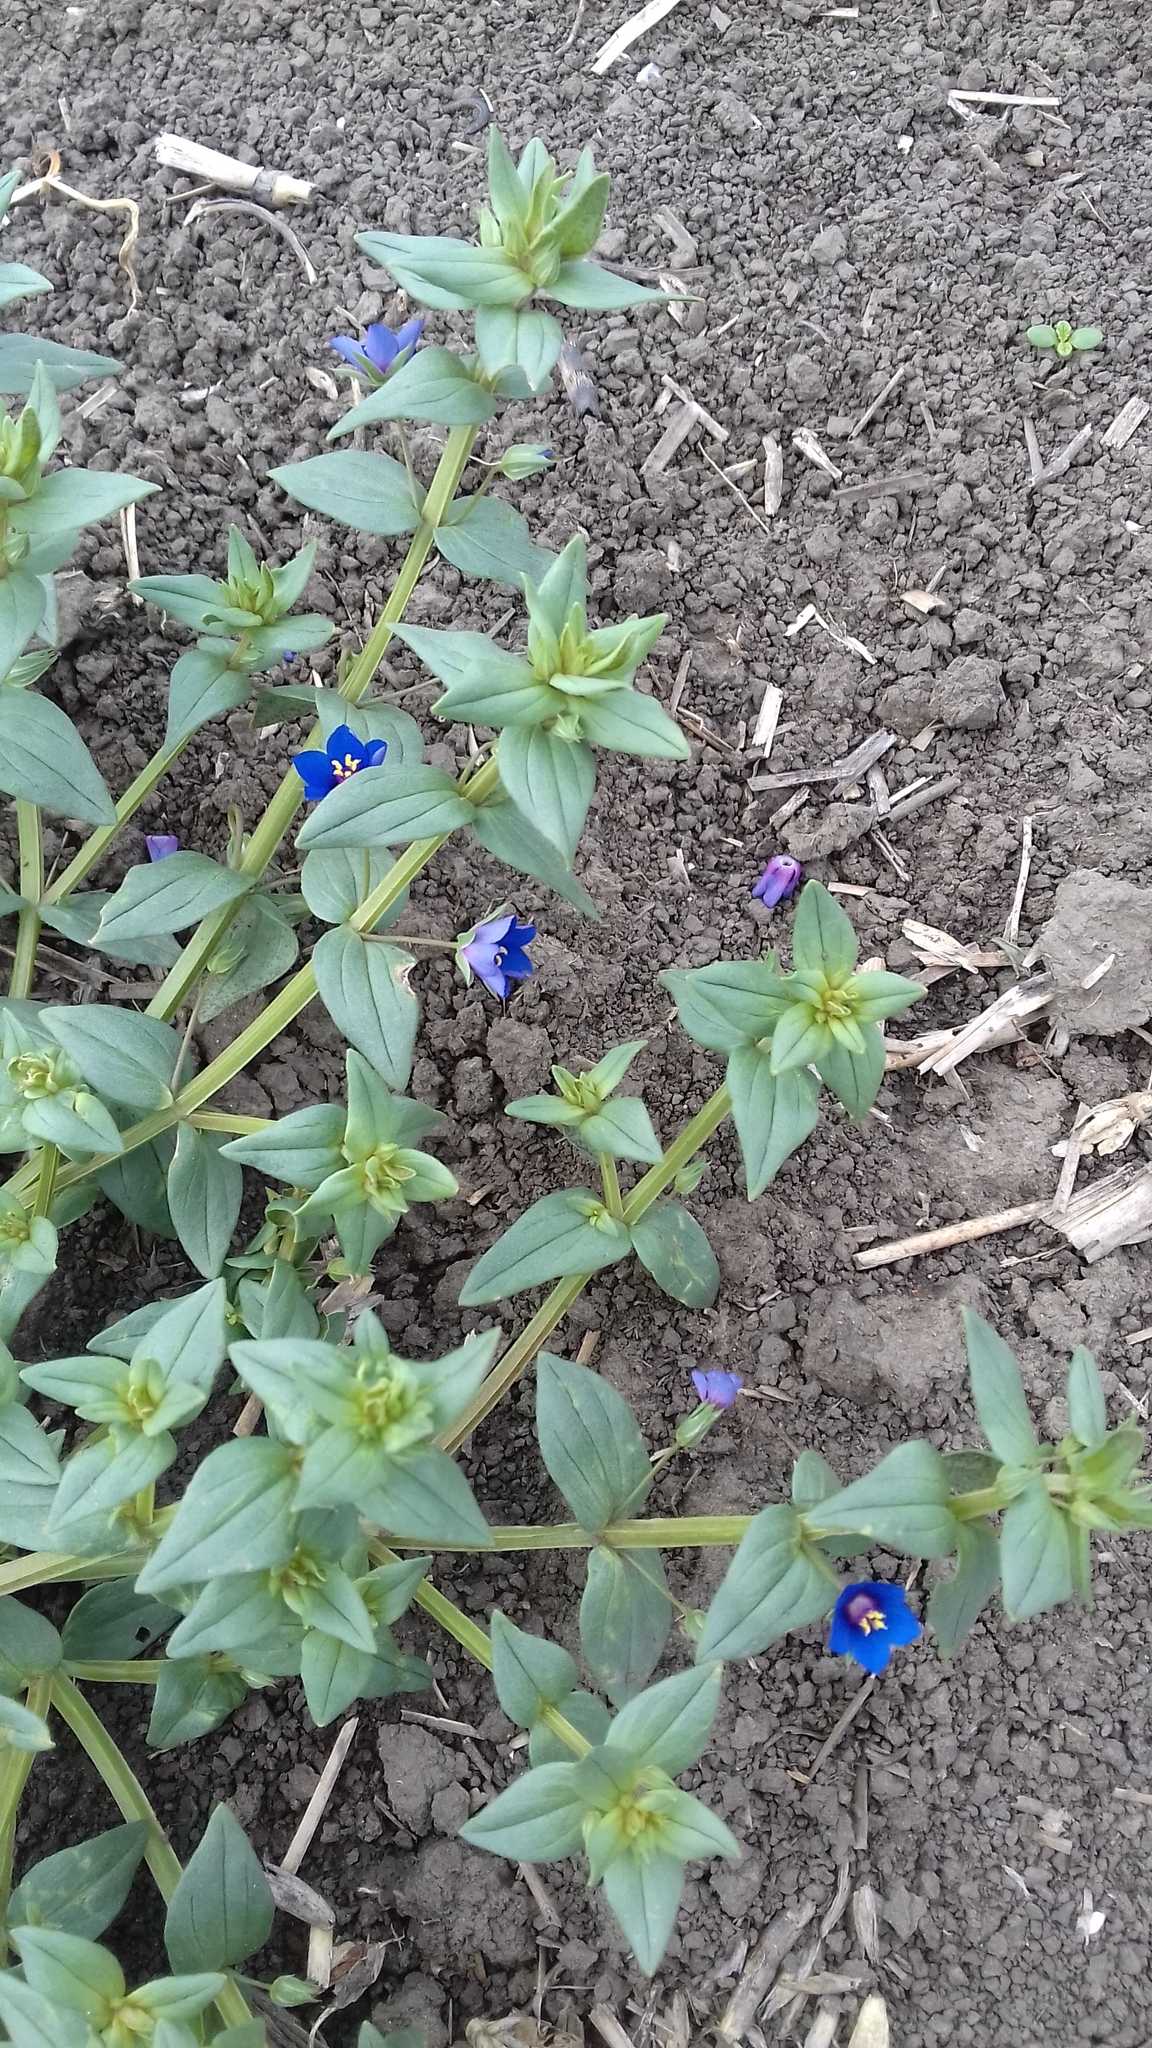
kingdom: Plantae
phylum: Tracheophyta
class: Magnoliopsida
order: Ericales
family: Primulaceae
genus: Lysimachia
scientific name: Lysimachia arvensis
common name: Scarlet pimpernel
